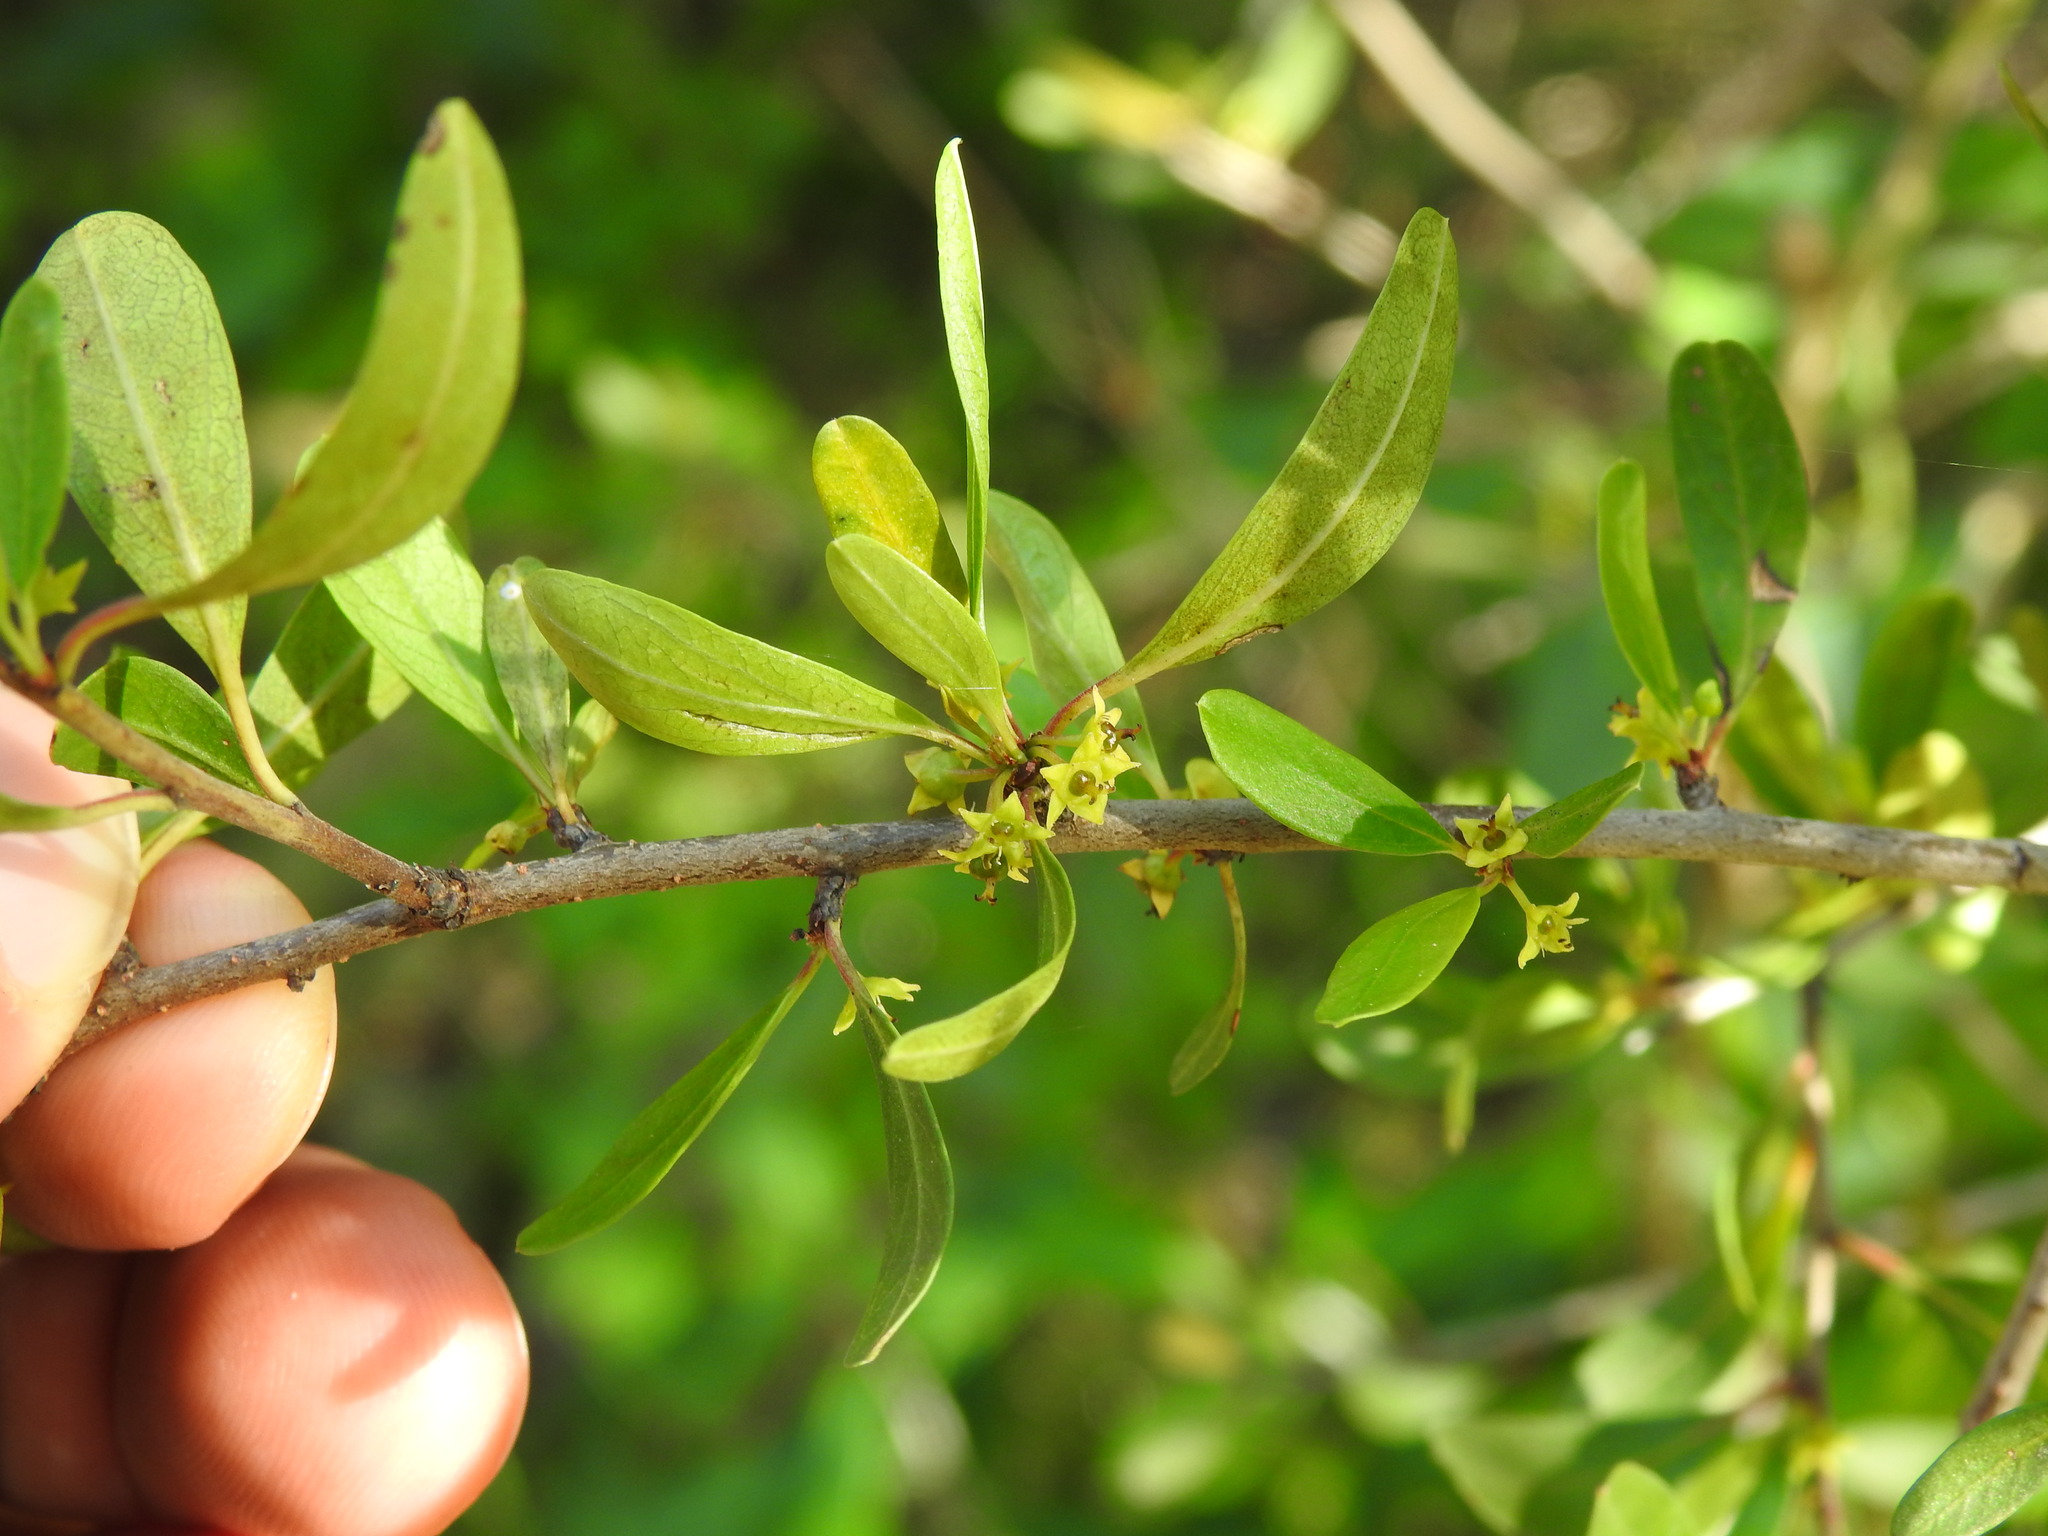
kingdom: Plantae
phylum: Tracheophyta
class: Magnoliopsida
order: Rosales
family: Rhamnaceae
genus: Rhamnus
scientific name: Rhamnus oleoides
